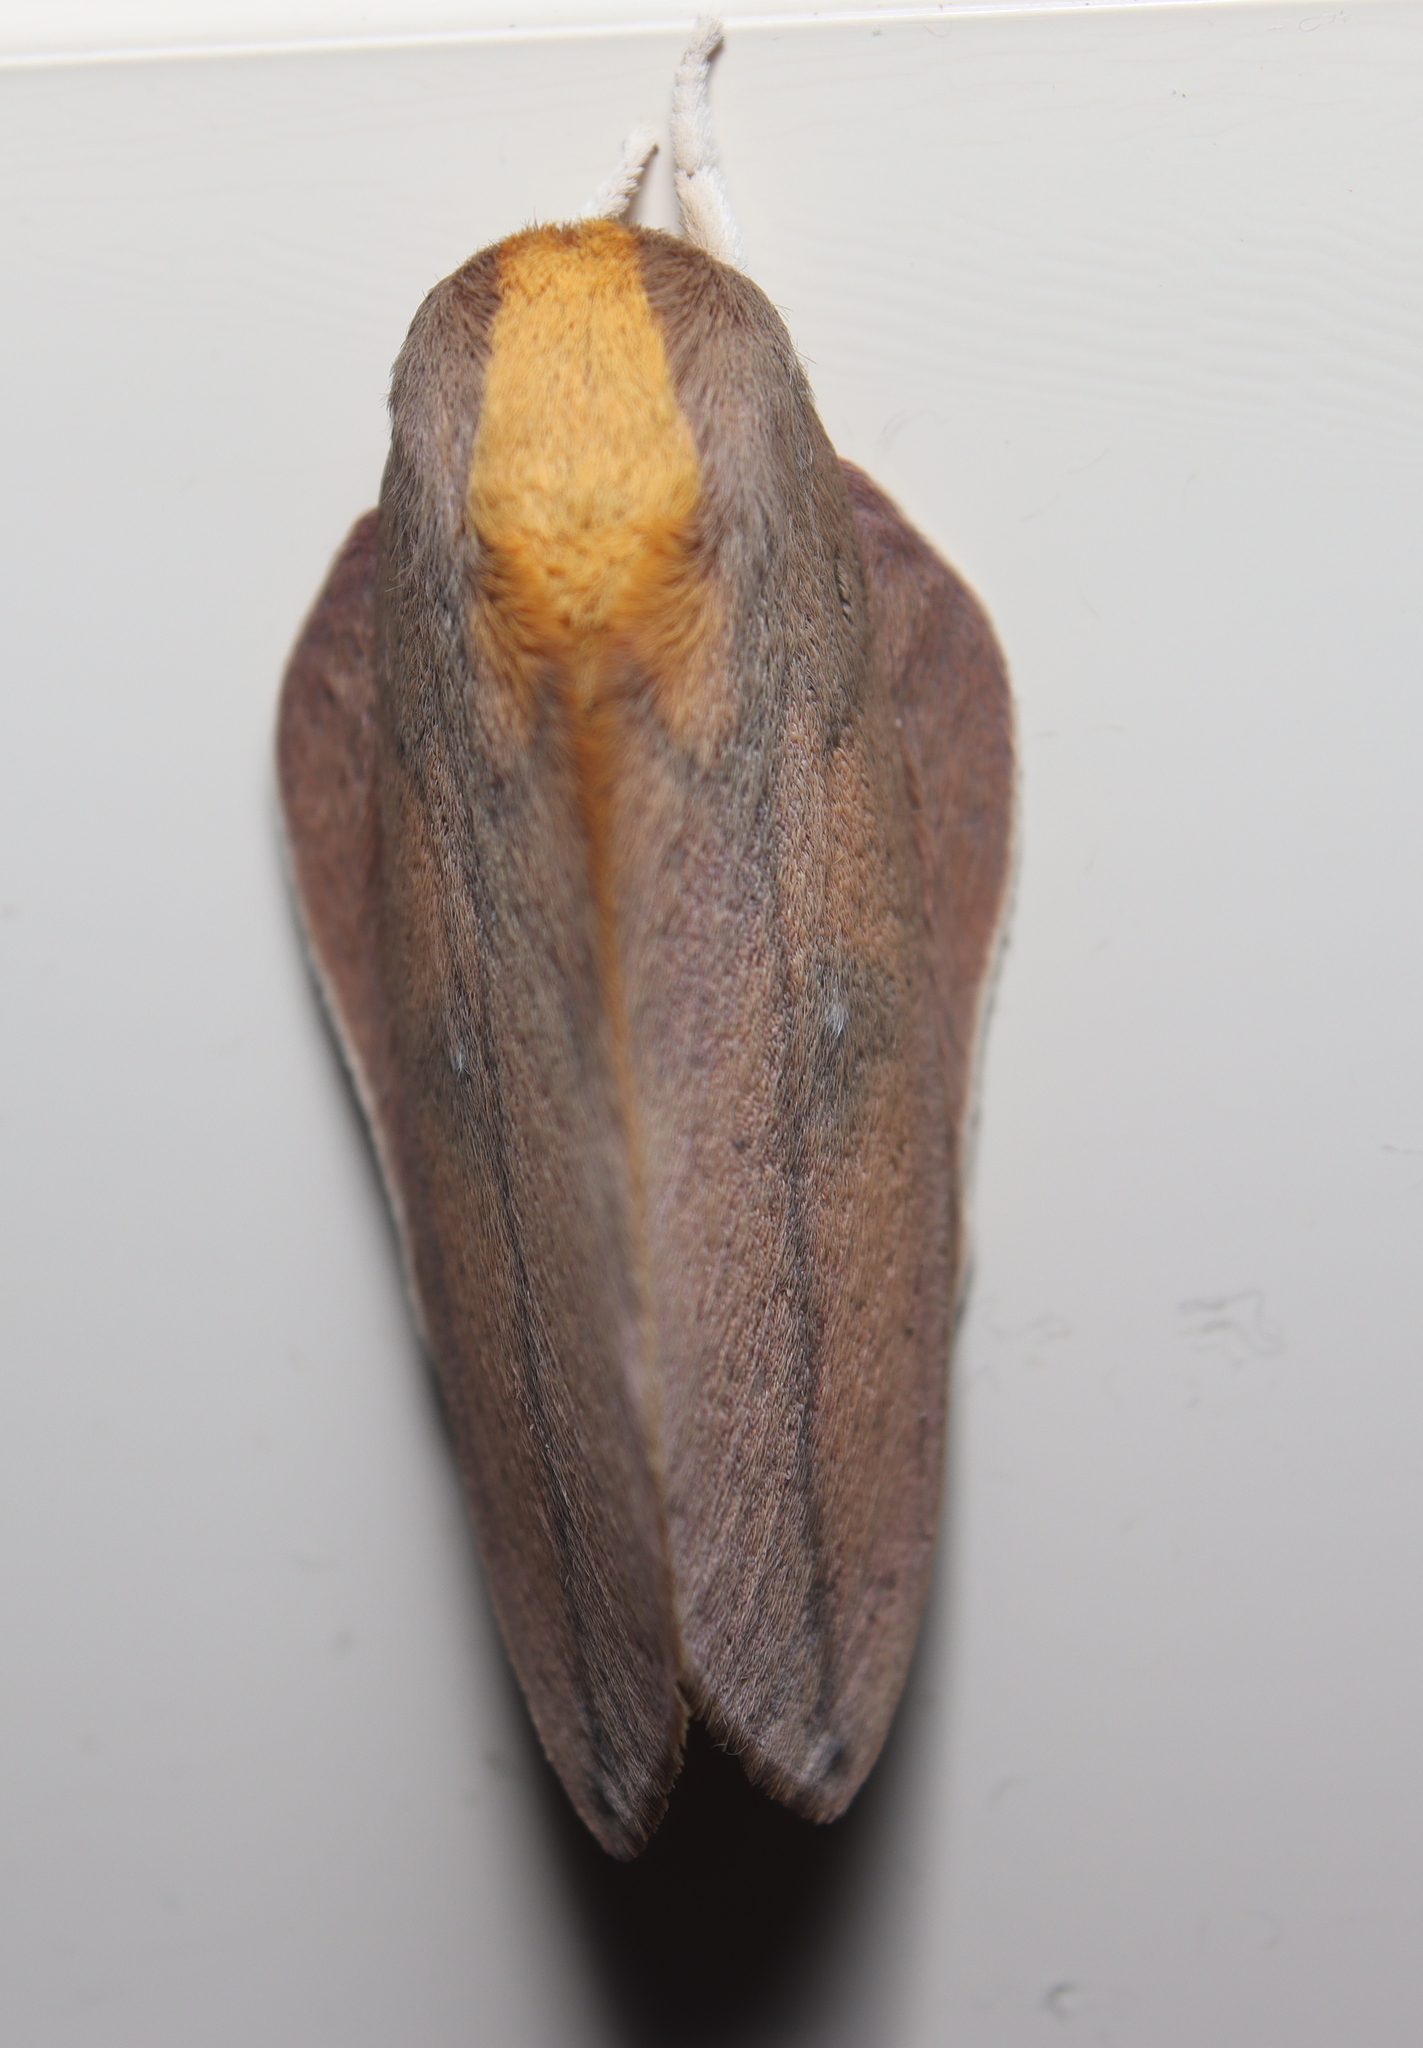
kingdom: Animalia
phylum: Arthropoda
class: Insecta
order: Lepidoptera
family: Saturniidae
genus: Cicia
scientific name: Cicia crocata
